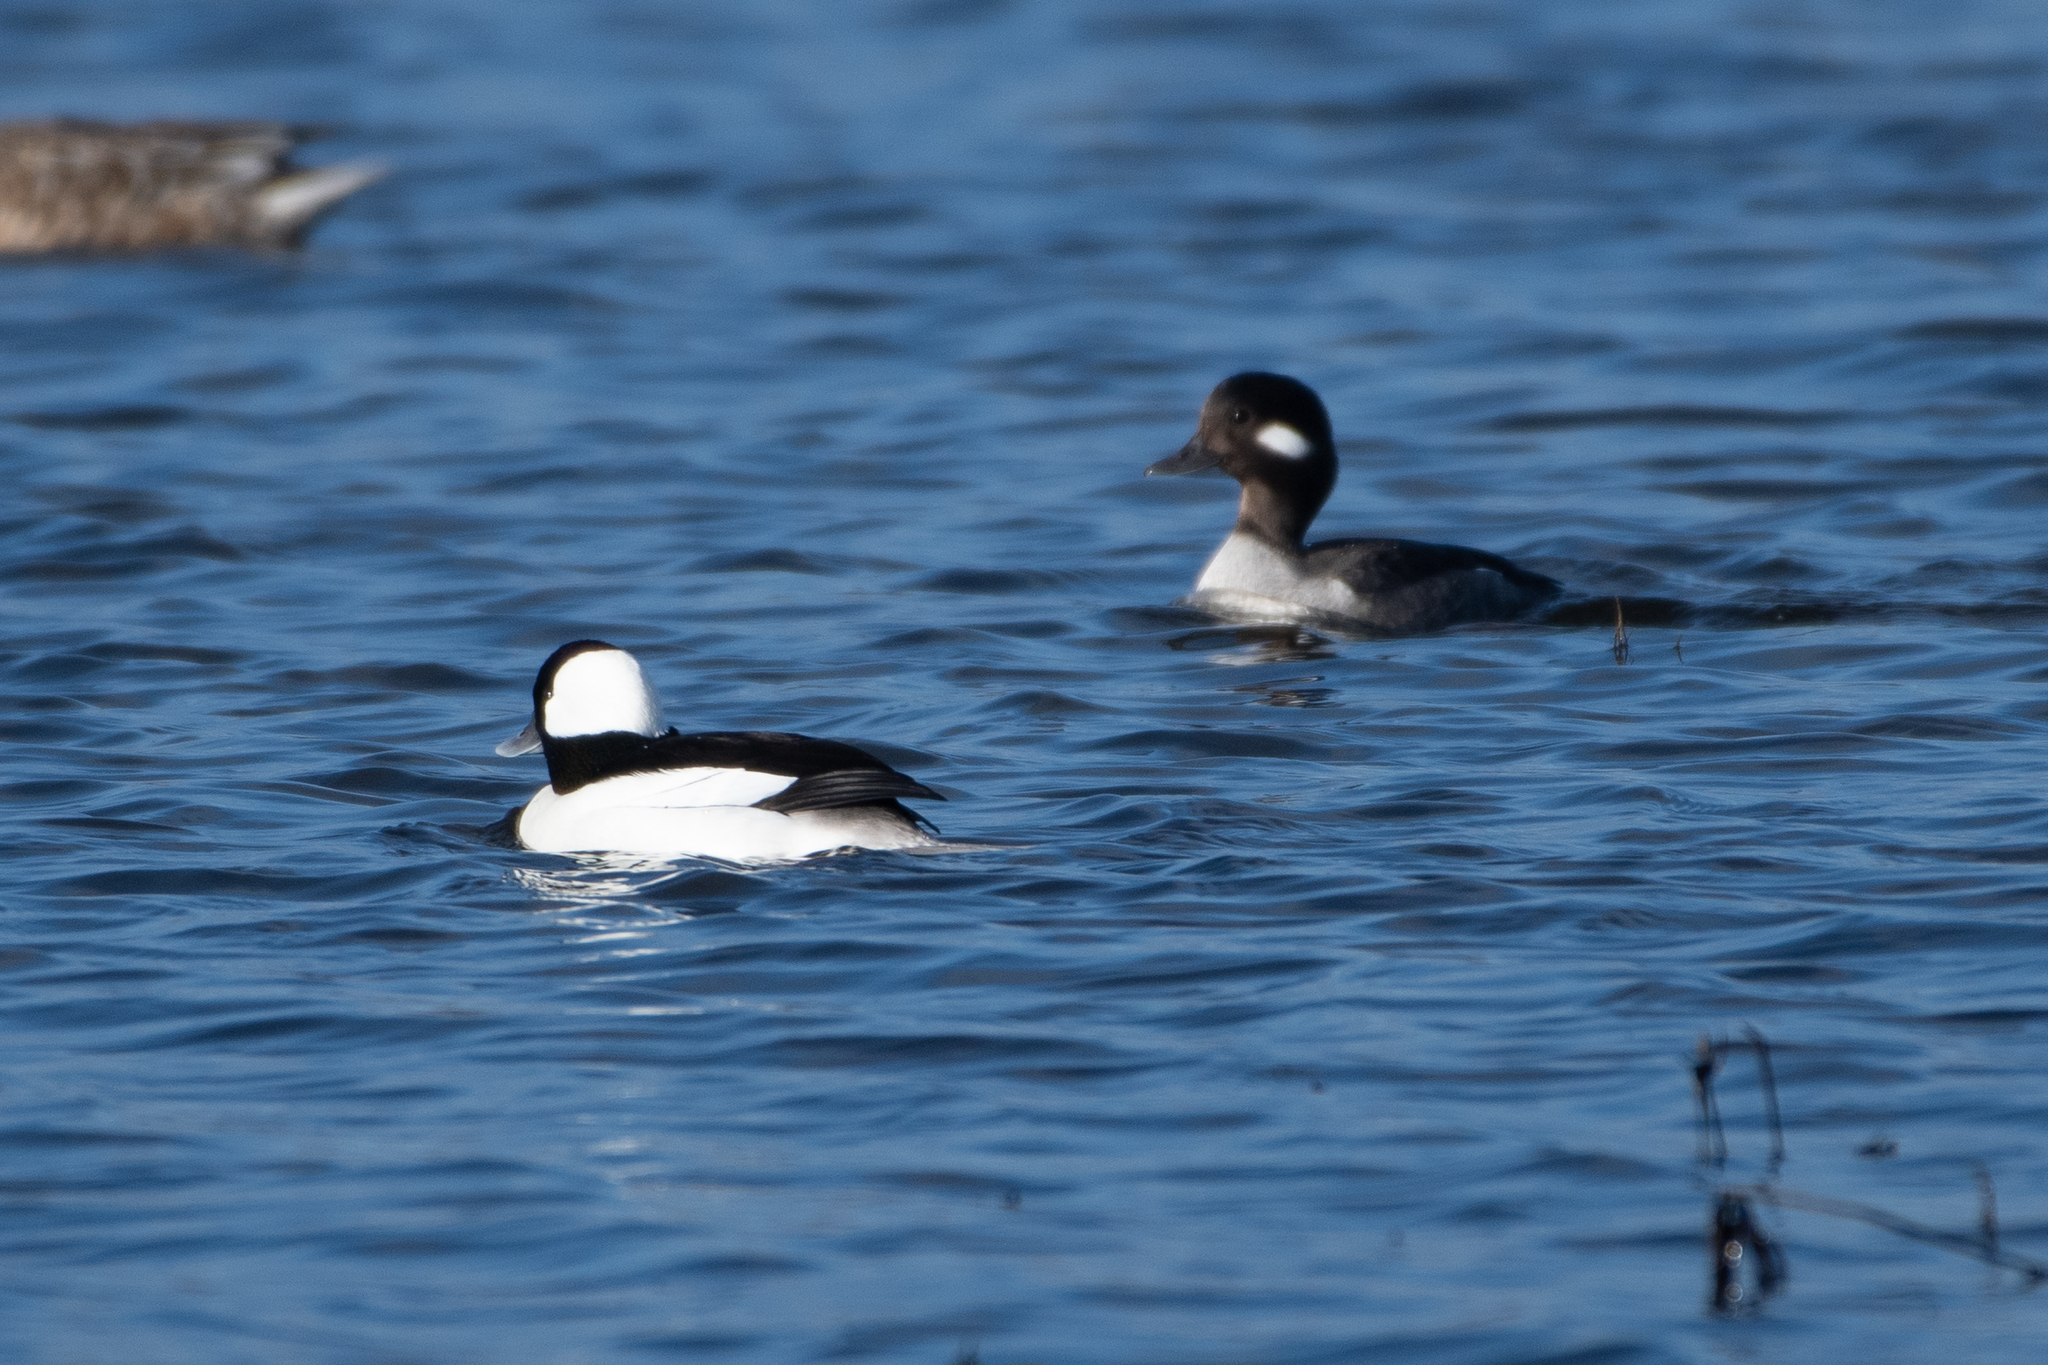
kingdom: Animalia
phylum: Chordata
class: Aves
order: Anseriformes
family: Anatidae
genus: Bucephala
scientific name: Bucephala albeola
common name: Bufflehead
